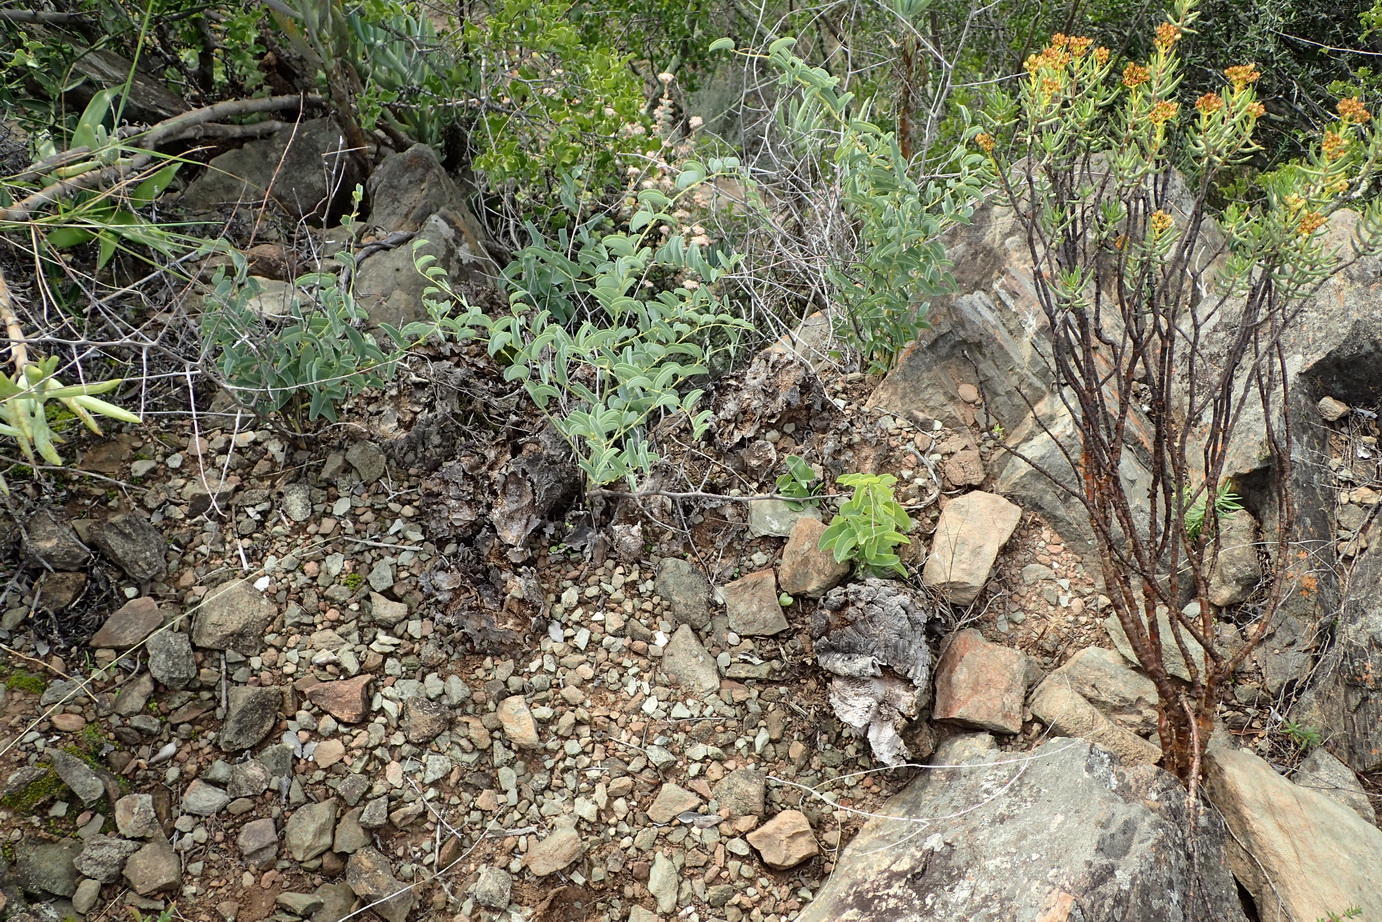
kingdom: Plantae
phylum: Tracheophyta
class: Liliopsida
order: Dioscoreales
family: Dioscoreaceae
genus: Dioscorea
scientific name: Dioscorea hemicrypta
